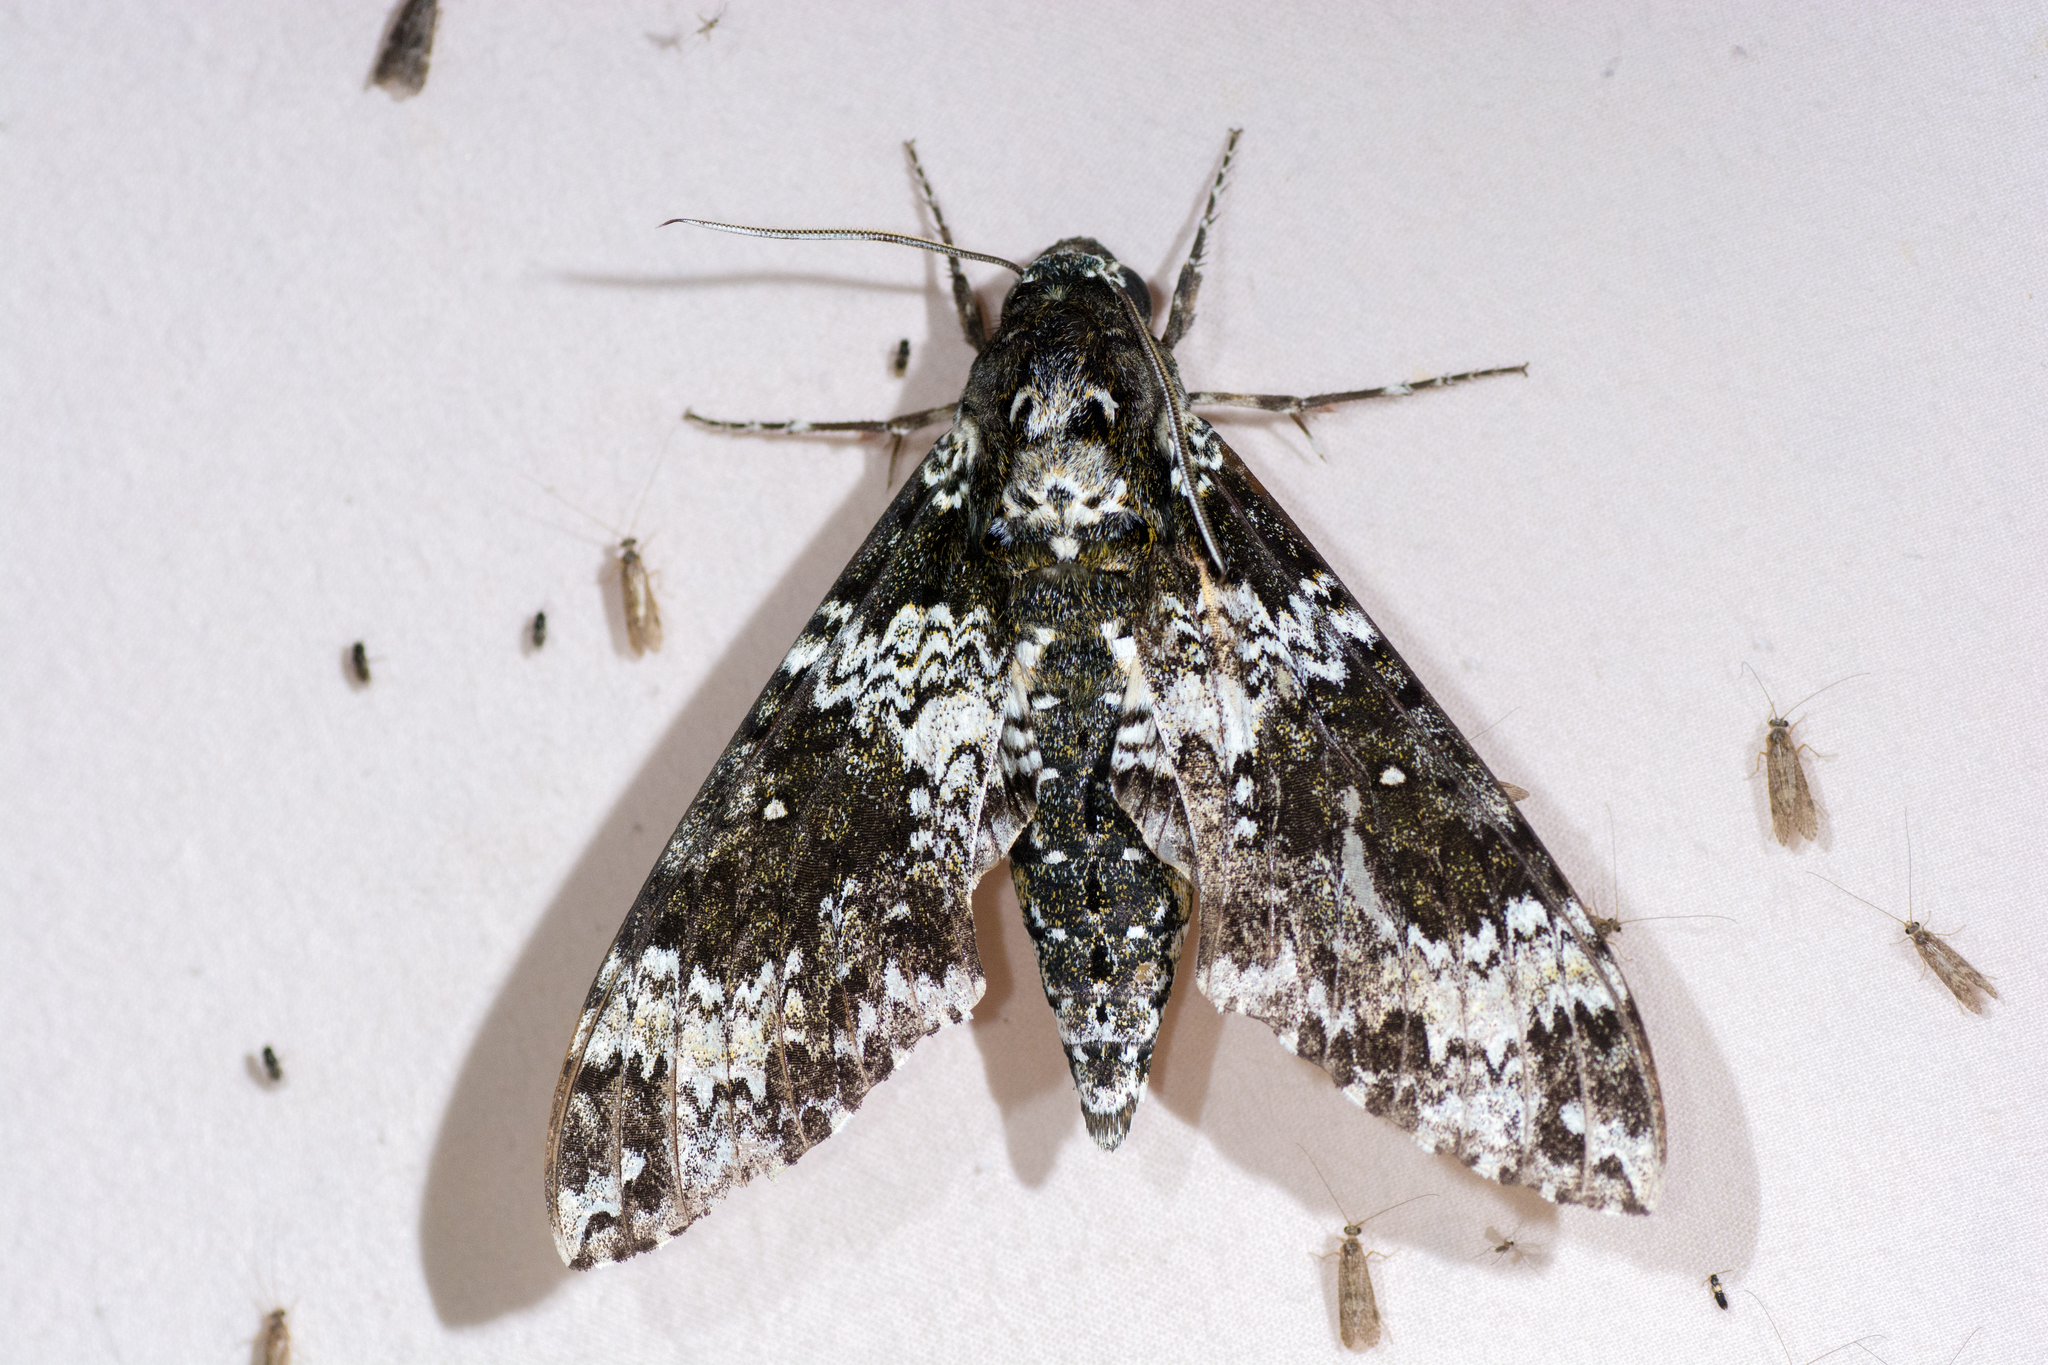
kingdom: Animalia
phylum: Arthropoda
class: Insecta
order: Lepidoptera
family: Sphingidae
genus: Manduca
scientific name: Manduca rustica
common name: Rustic sphinx
